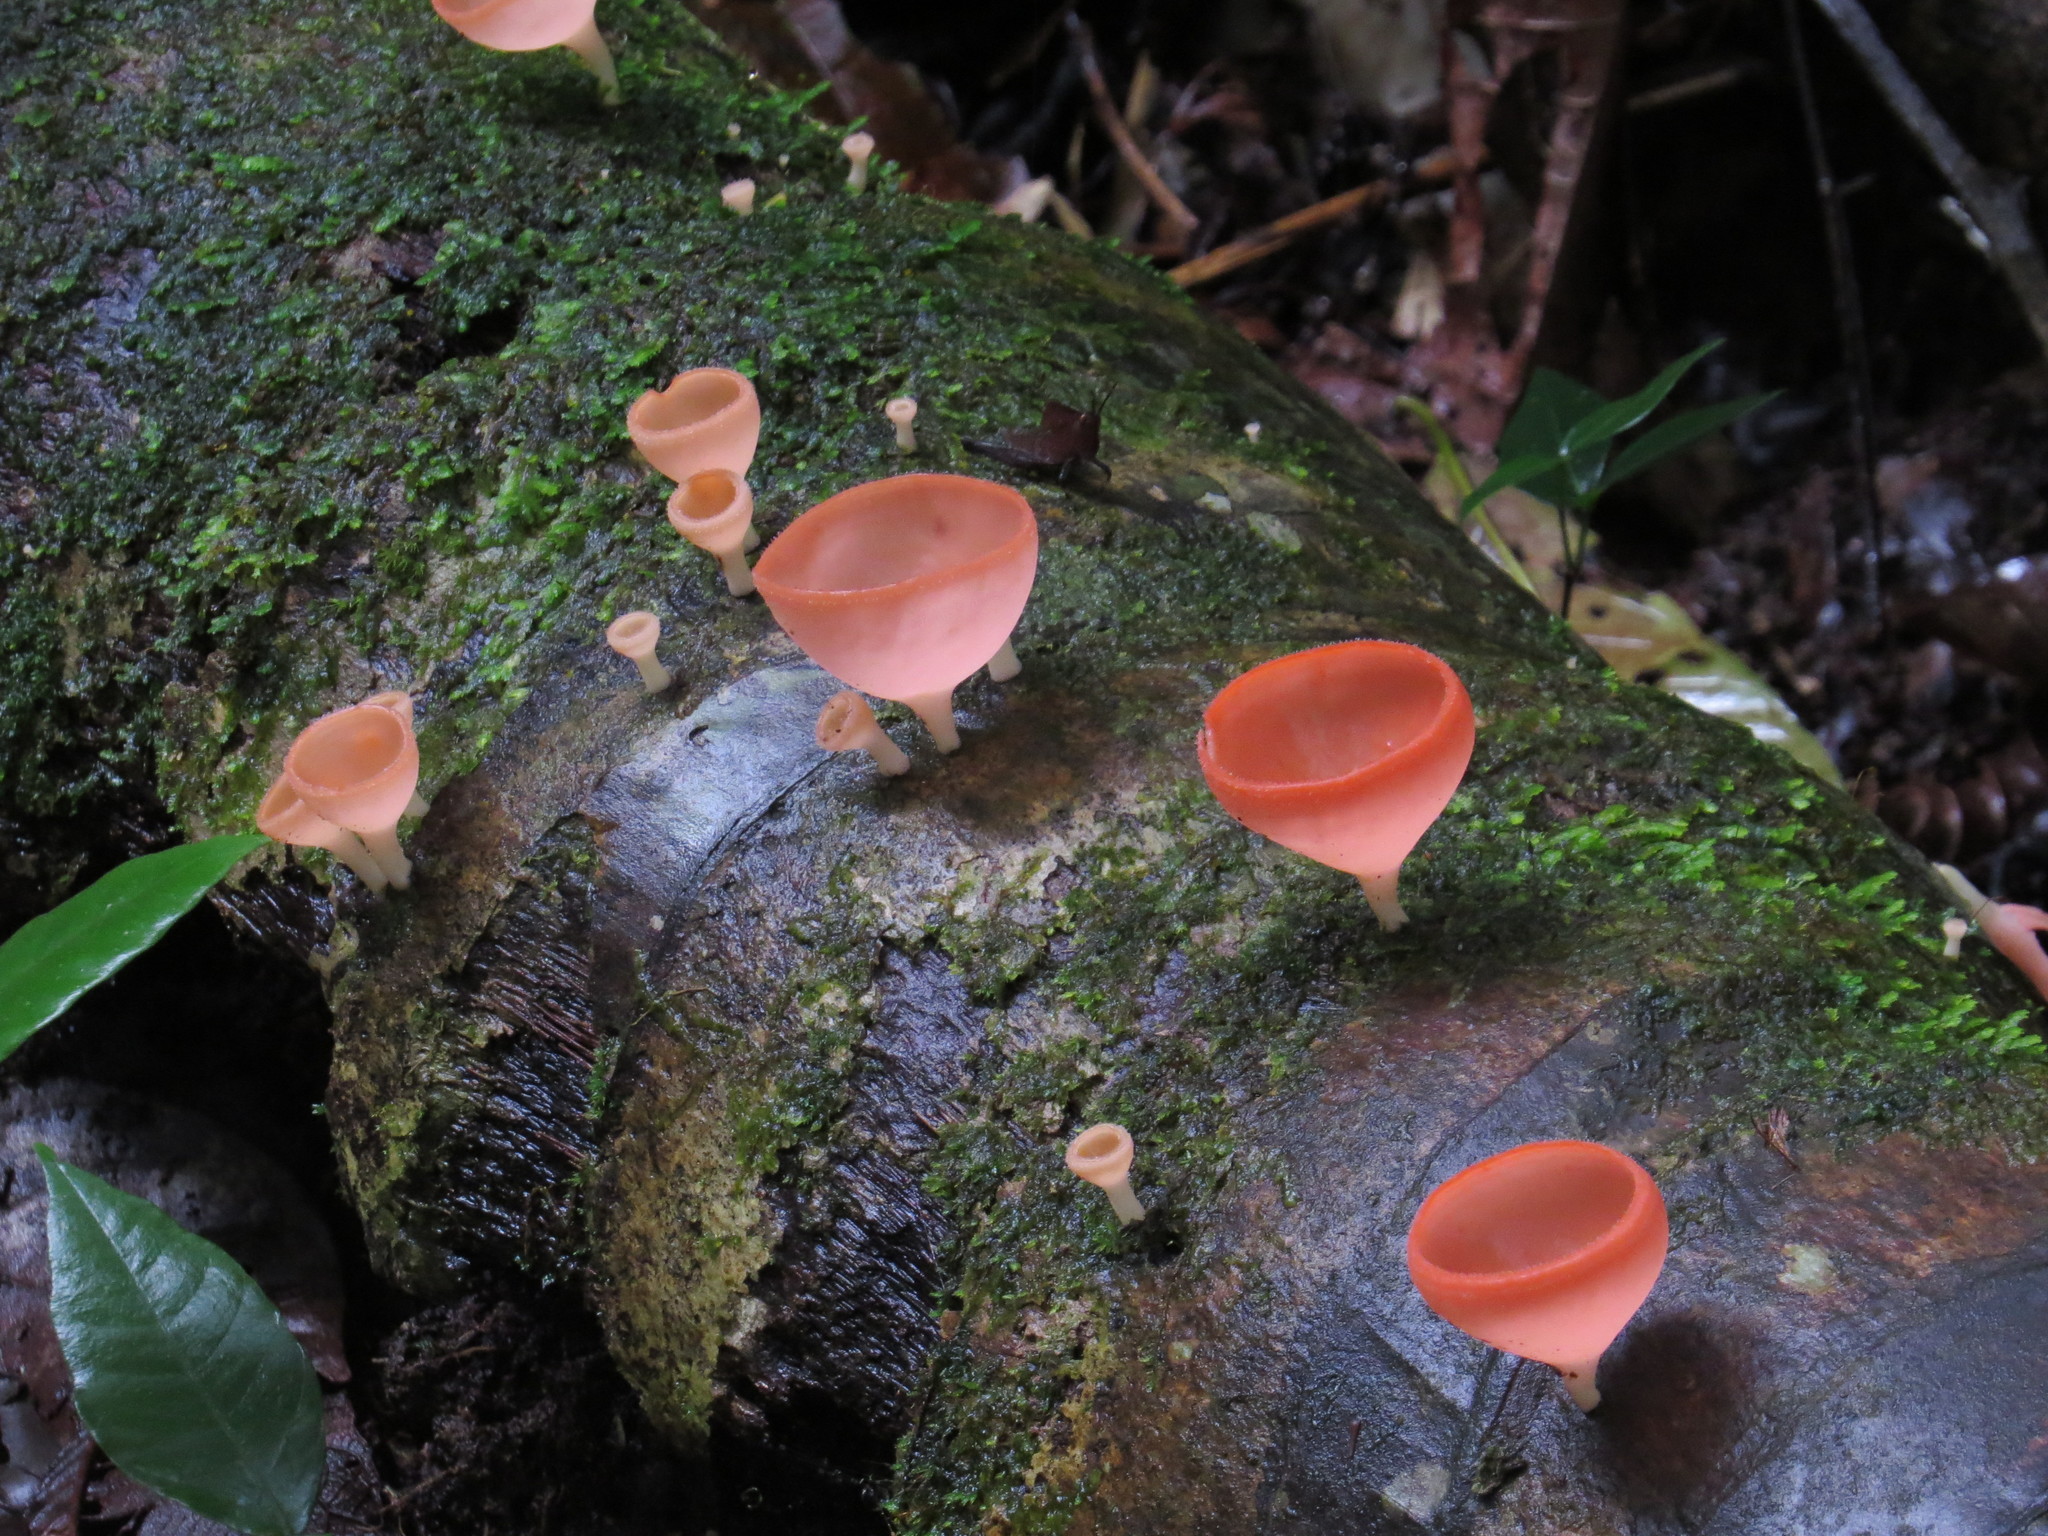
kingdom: Fungi
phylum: Ascomycota
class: Pezizomycetes
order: Pezizales
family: Sarcoscyphaceae
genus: Cookeina
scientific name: Cookeina speciosa
